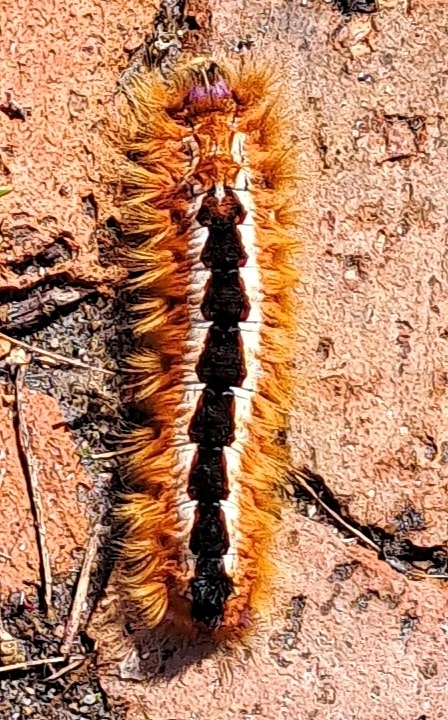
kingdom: Animalia
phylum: Arthropoda
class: Insecta
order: Lepidoptera
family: Lasiocampidae
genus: Eutricha
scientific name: Eutricha capensis
